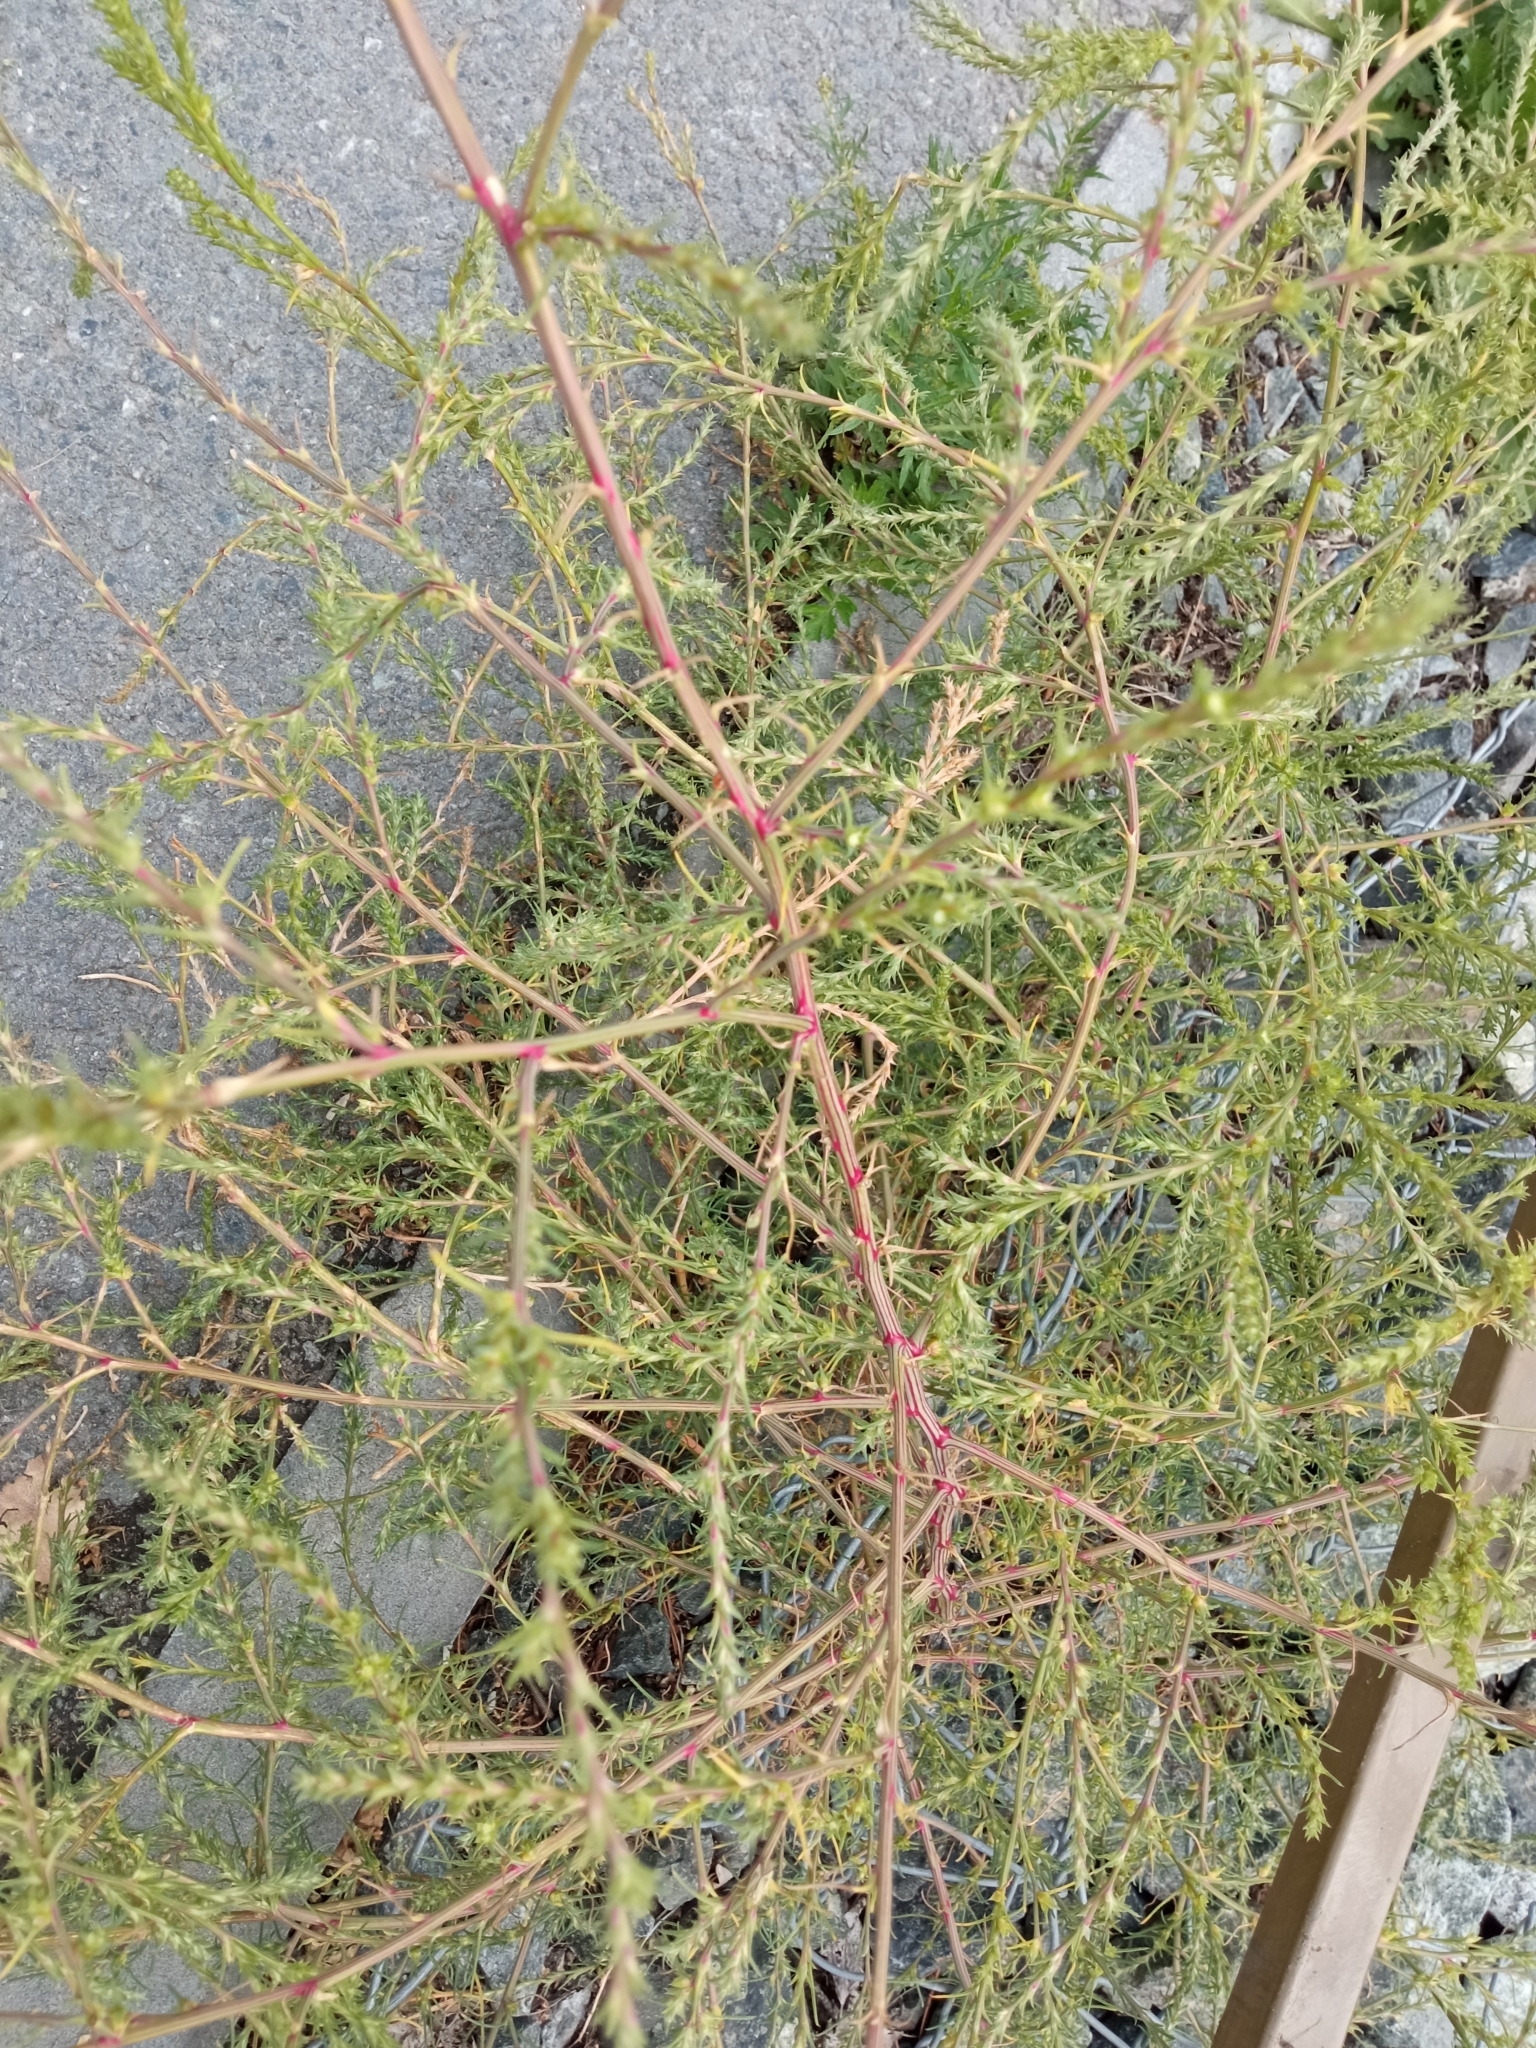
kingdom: Plantae
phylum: Tracheophyta
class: Magnoliopsida
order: Caryophyllales
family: Amaranthaceae
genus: Bassia
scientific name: Bassia scoparia
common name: Belvedere
